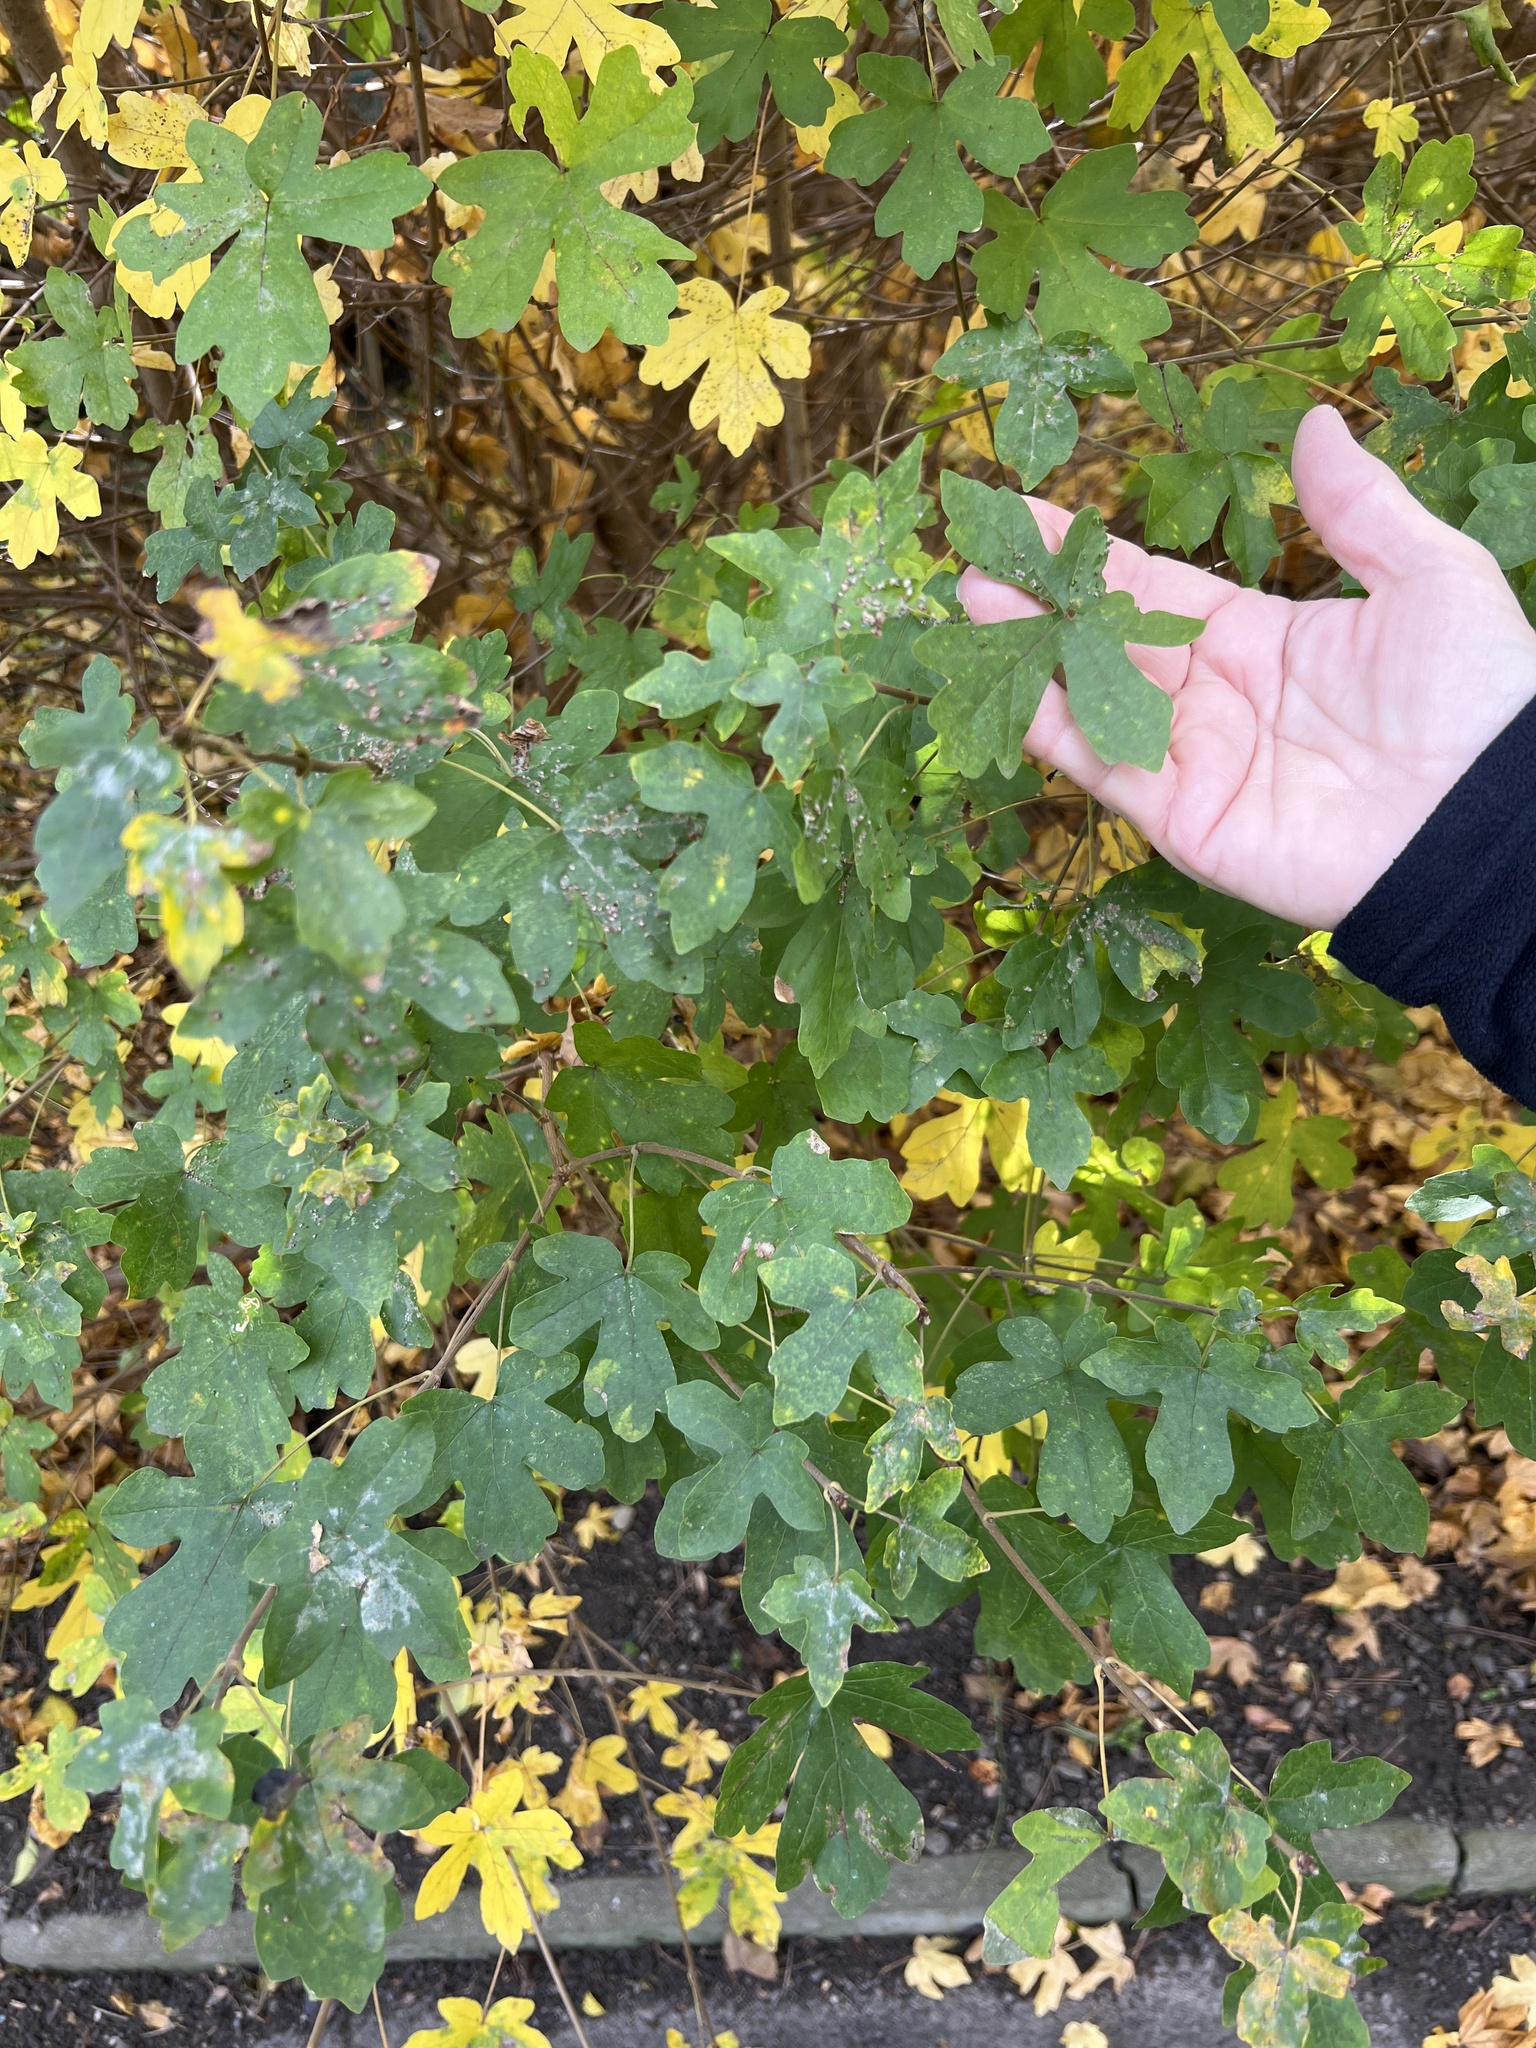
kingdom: Plantae
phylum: Tracheophyta
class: Magnoliopsida
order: Sapindales
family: Sapindaceae
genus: Acer
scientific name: Acer campestre
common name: Field maple
